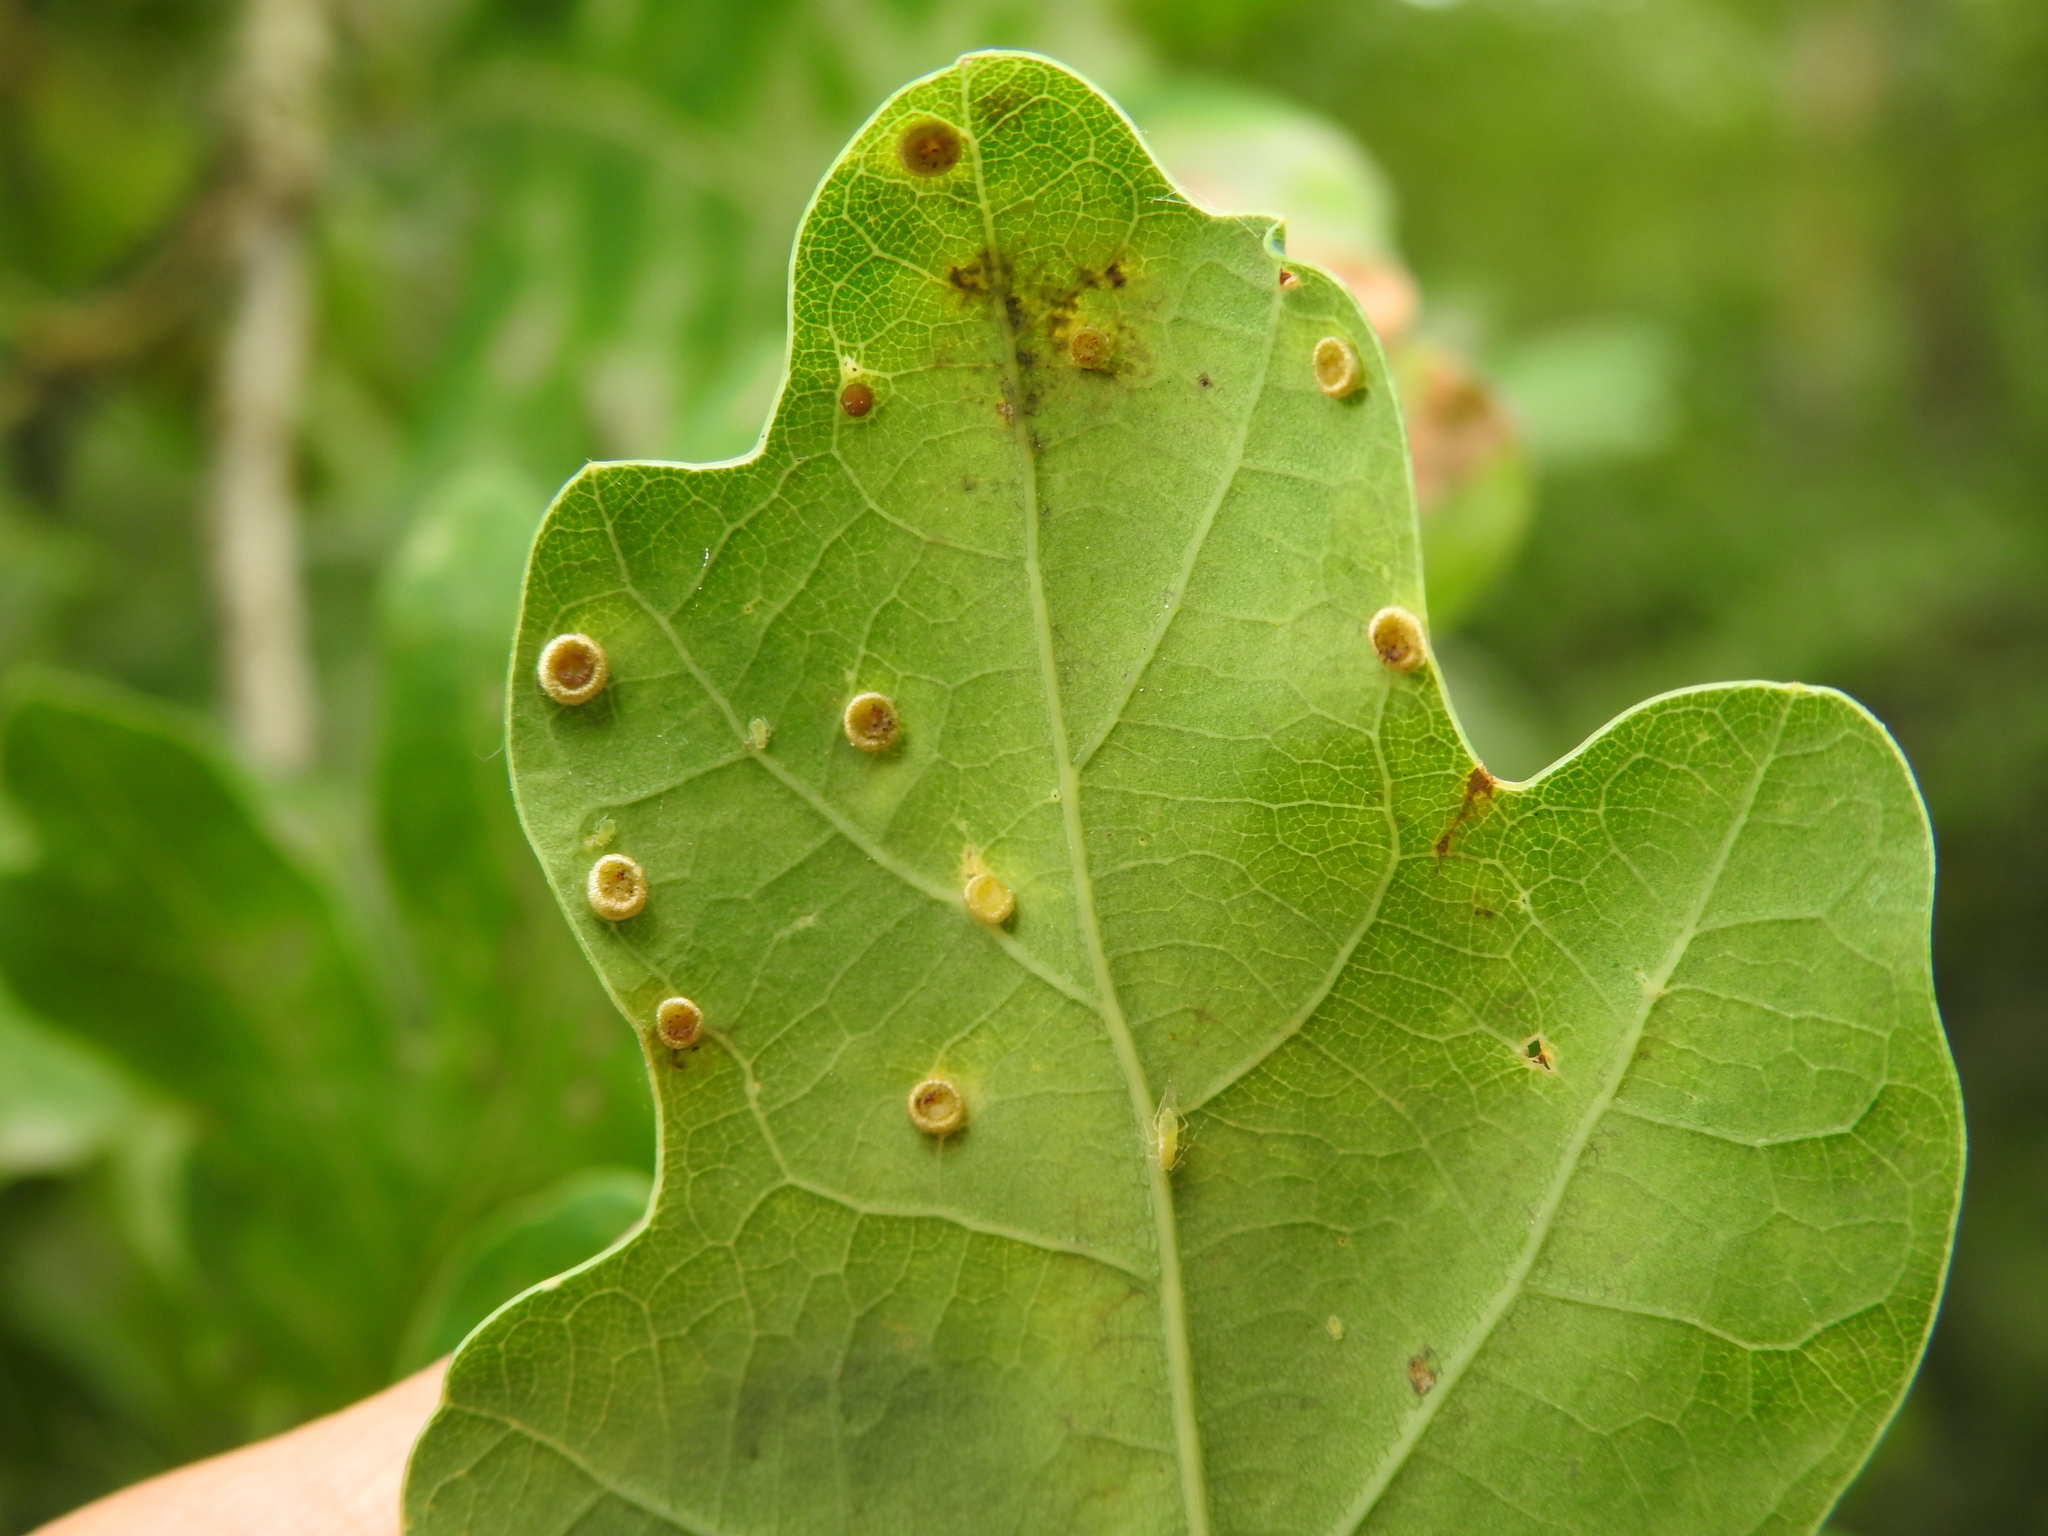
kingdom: Animalia
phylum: Arthropoda
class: Insecta
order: Hymenoptera
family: Cynipidae
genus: Neuroterus
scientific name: Neuroterus numismalis
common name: Silk-button spangle gall
